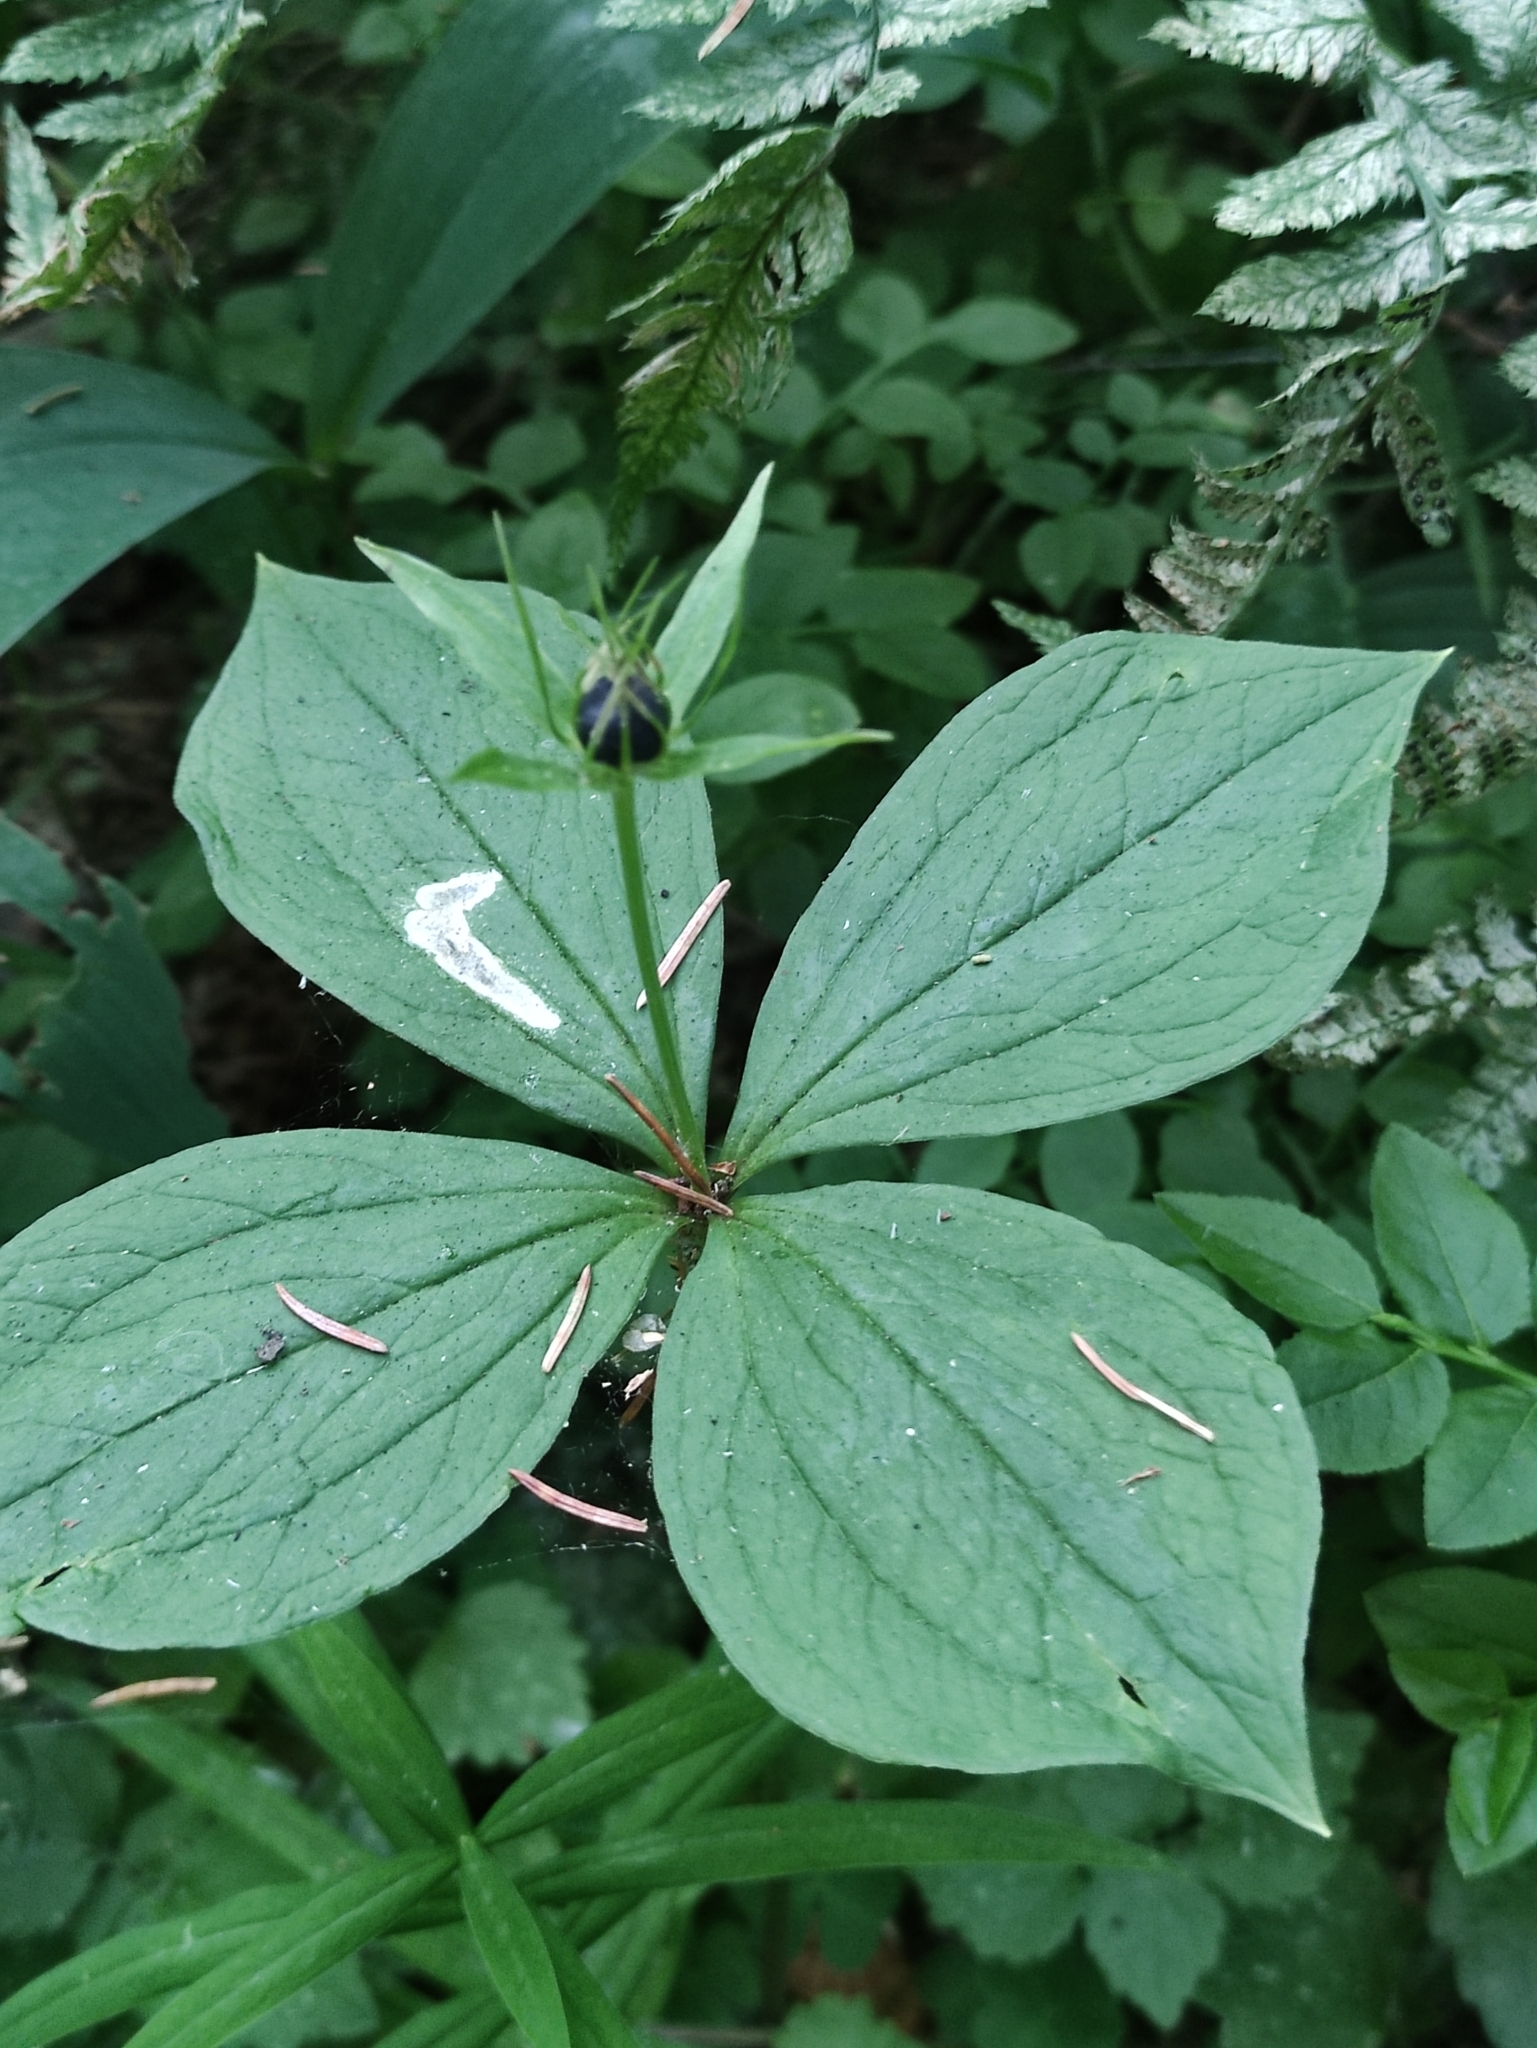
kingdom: Plantae
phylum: Tracheophyta
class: Liliopsida
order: Liliales
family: Melanthiaceae
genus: Paris
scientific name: Paris quadrifolia
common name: Herb-paris
